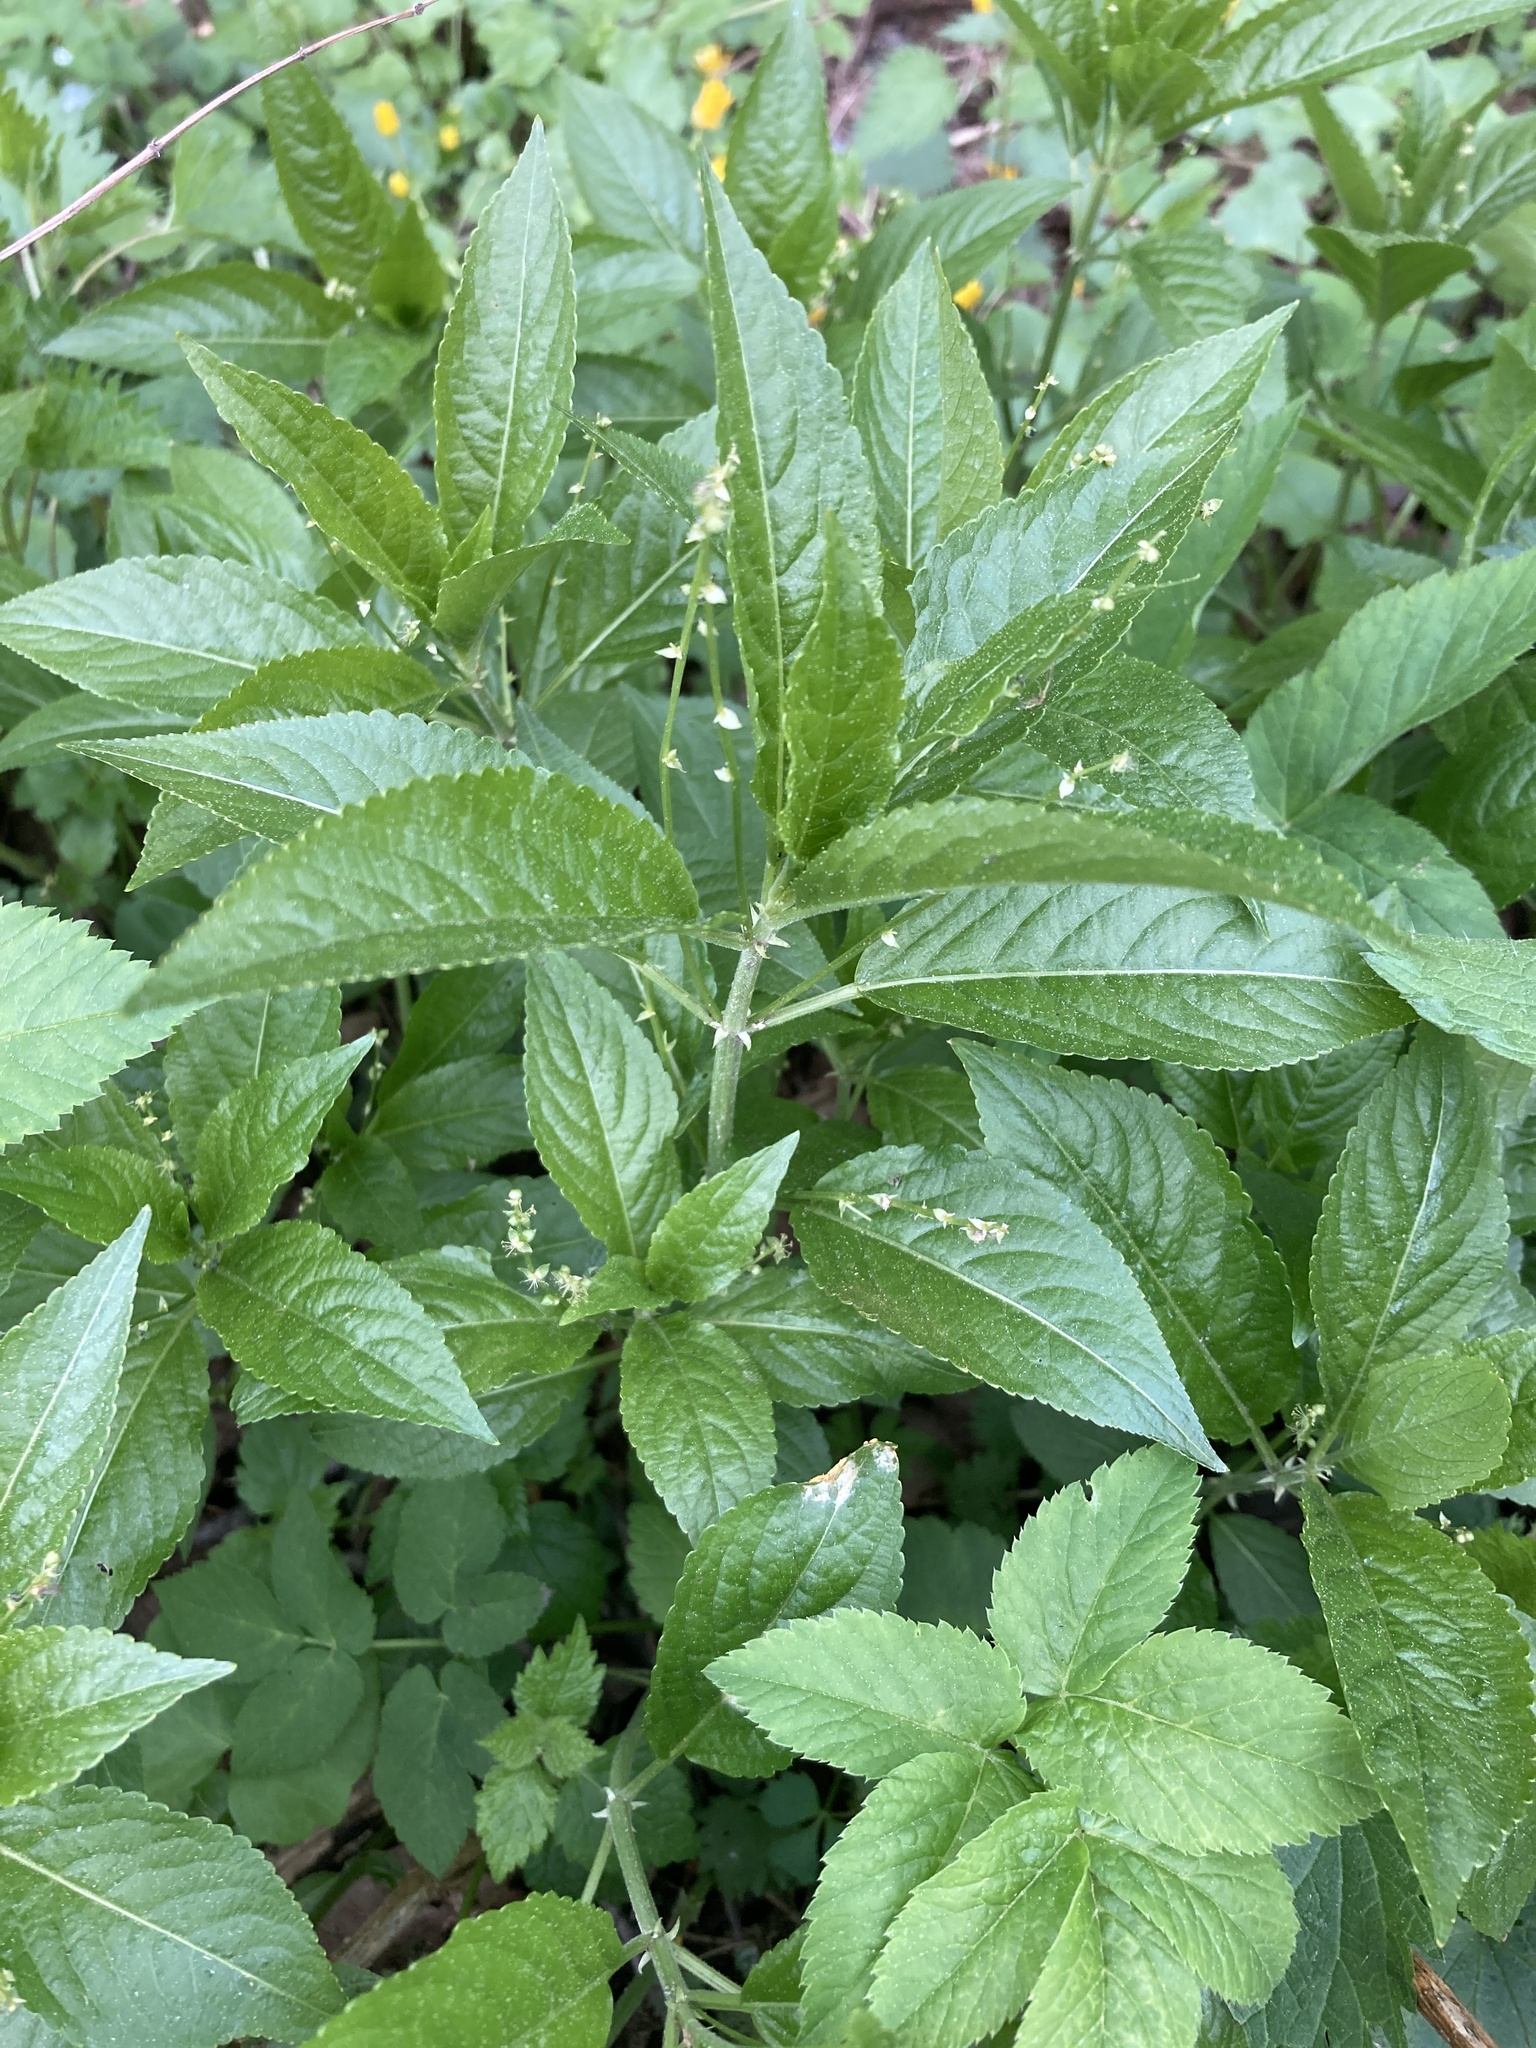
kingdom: Plantae
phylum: Tracheophyta
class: Magnoliopsida
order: Malpighiales
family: Euphorbiaceae
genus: Mercurialis
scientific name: Mercurialis perennis
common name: Dog mercury
